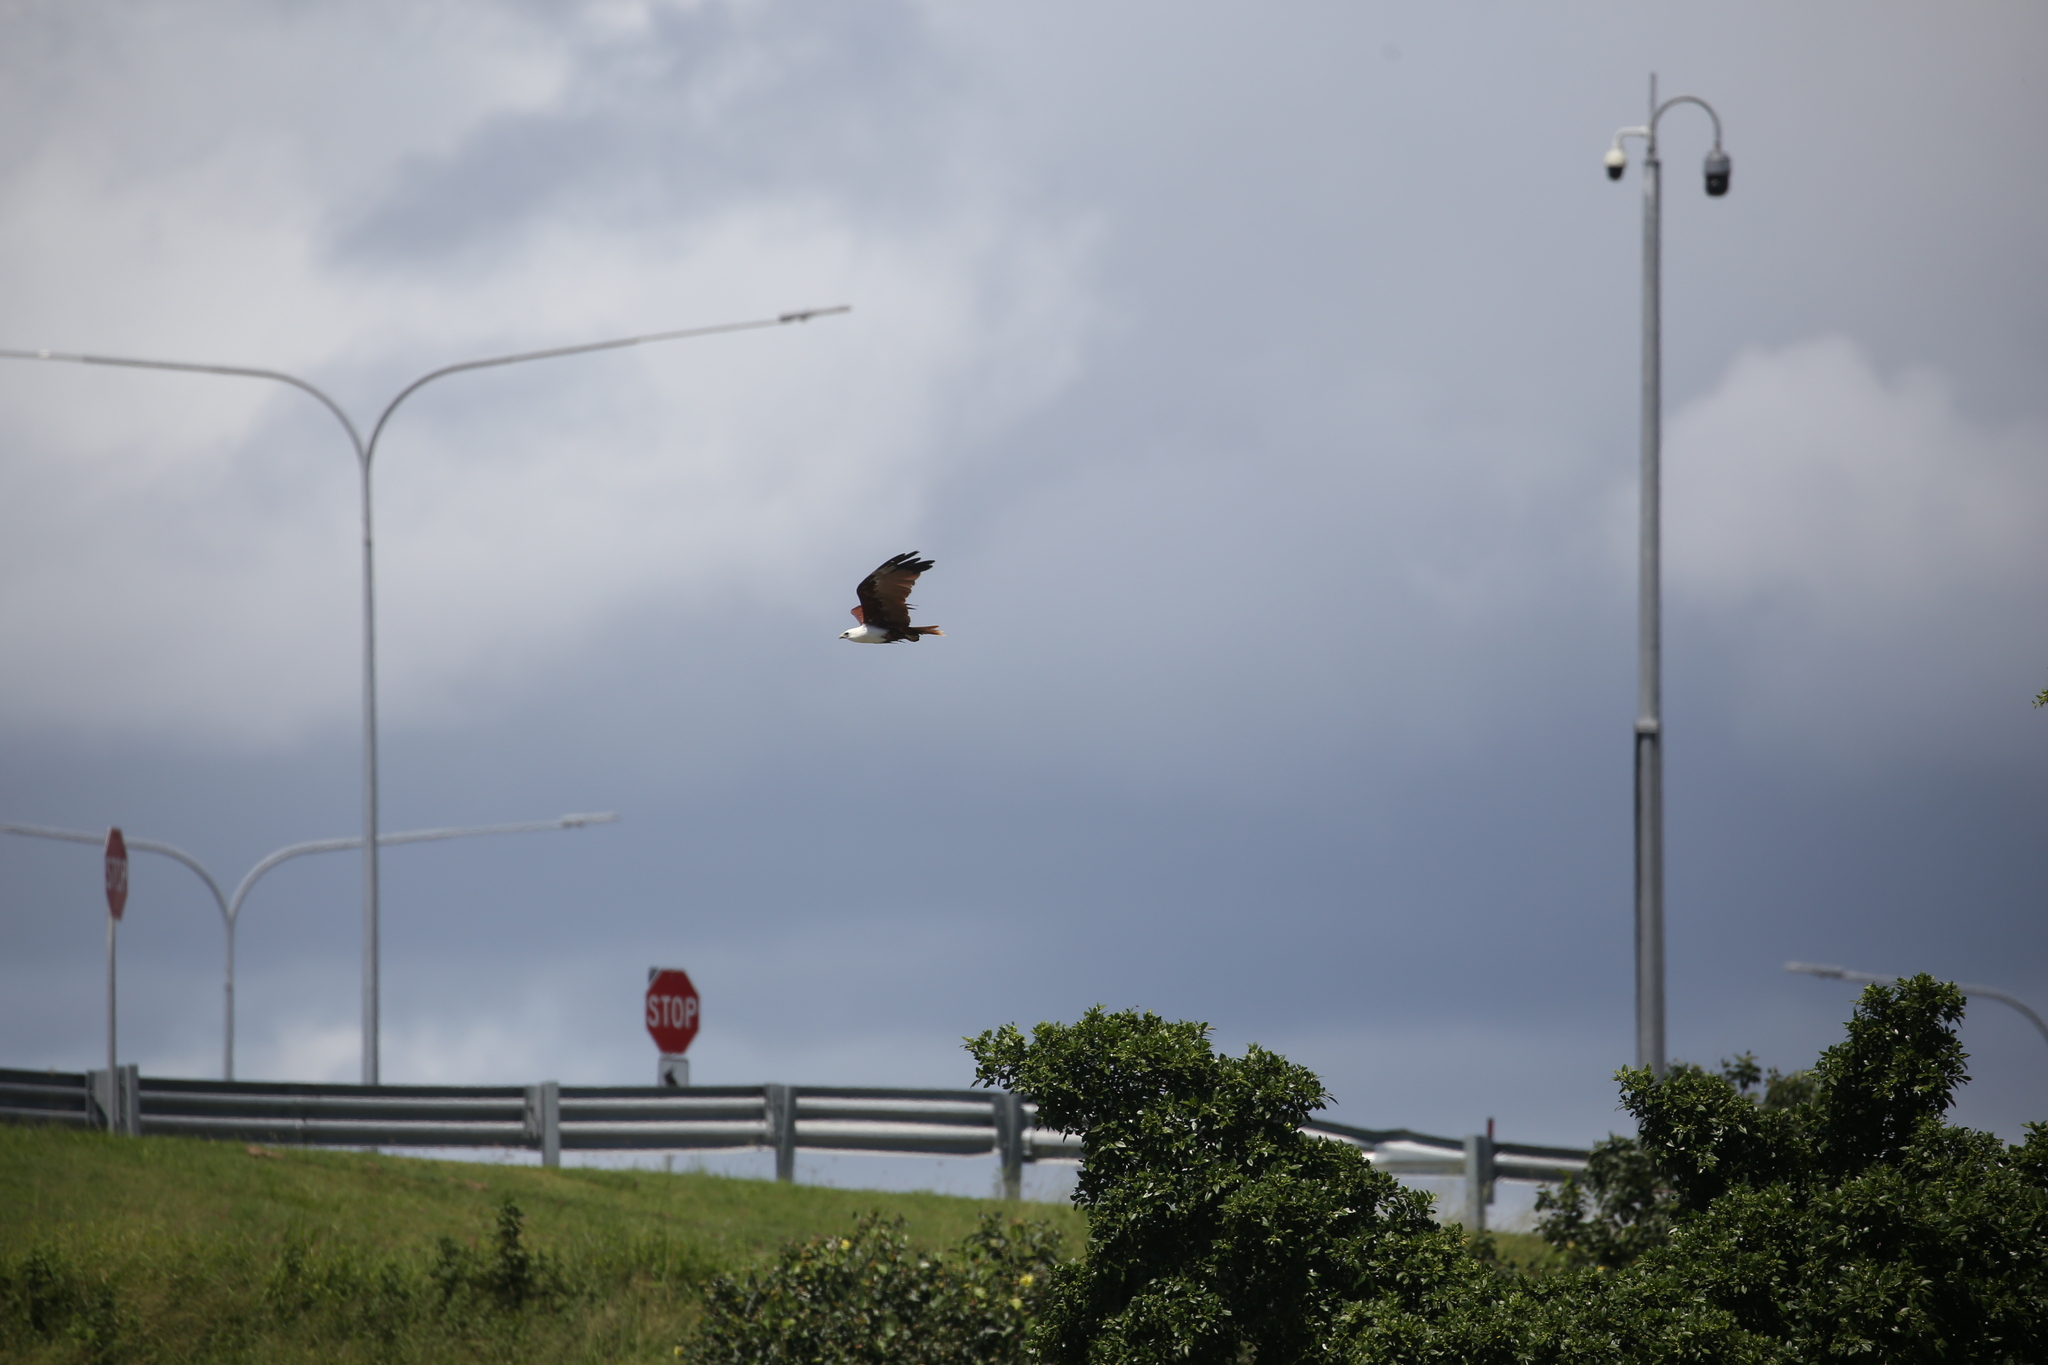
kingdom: Animalia
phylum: Chordata
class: Aves
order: Accipitriformes
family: Accipitridae
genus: Haliastur
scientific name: Haliastur indus
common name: Brahminy kite
